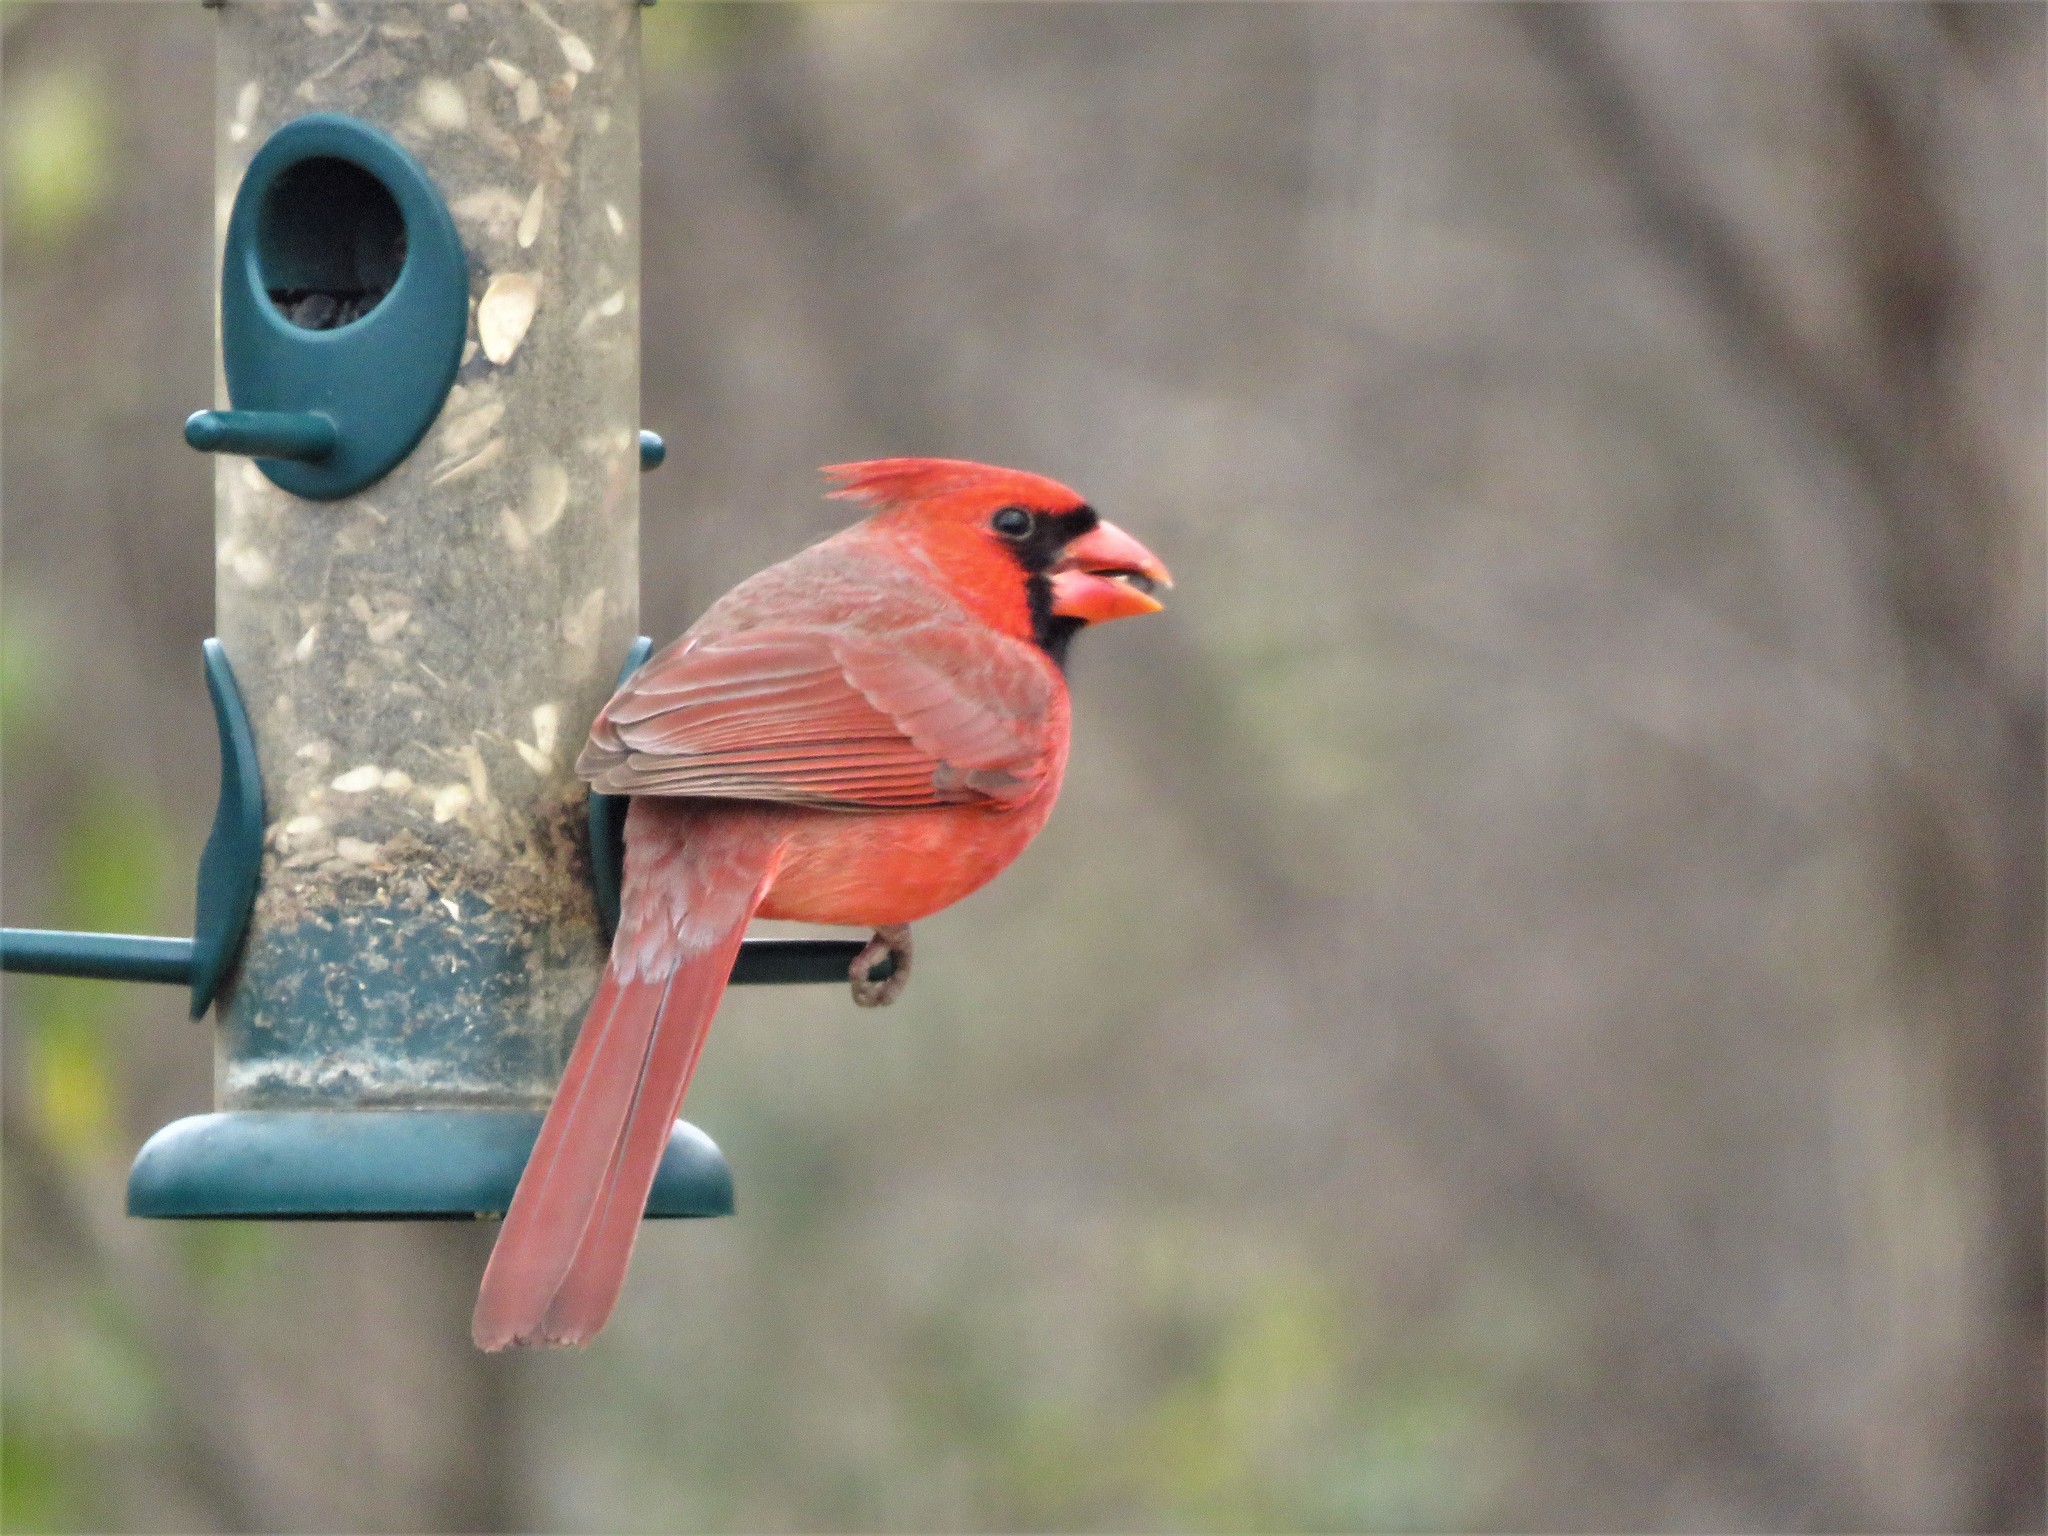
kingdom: Animalia
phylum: Chordata
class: Aves
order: Passeriformes
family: Cardinalidae
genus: Cardinalis
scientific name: Cardinalis cardinalis
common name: Northern cardinal
